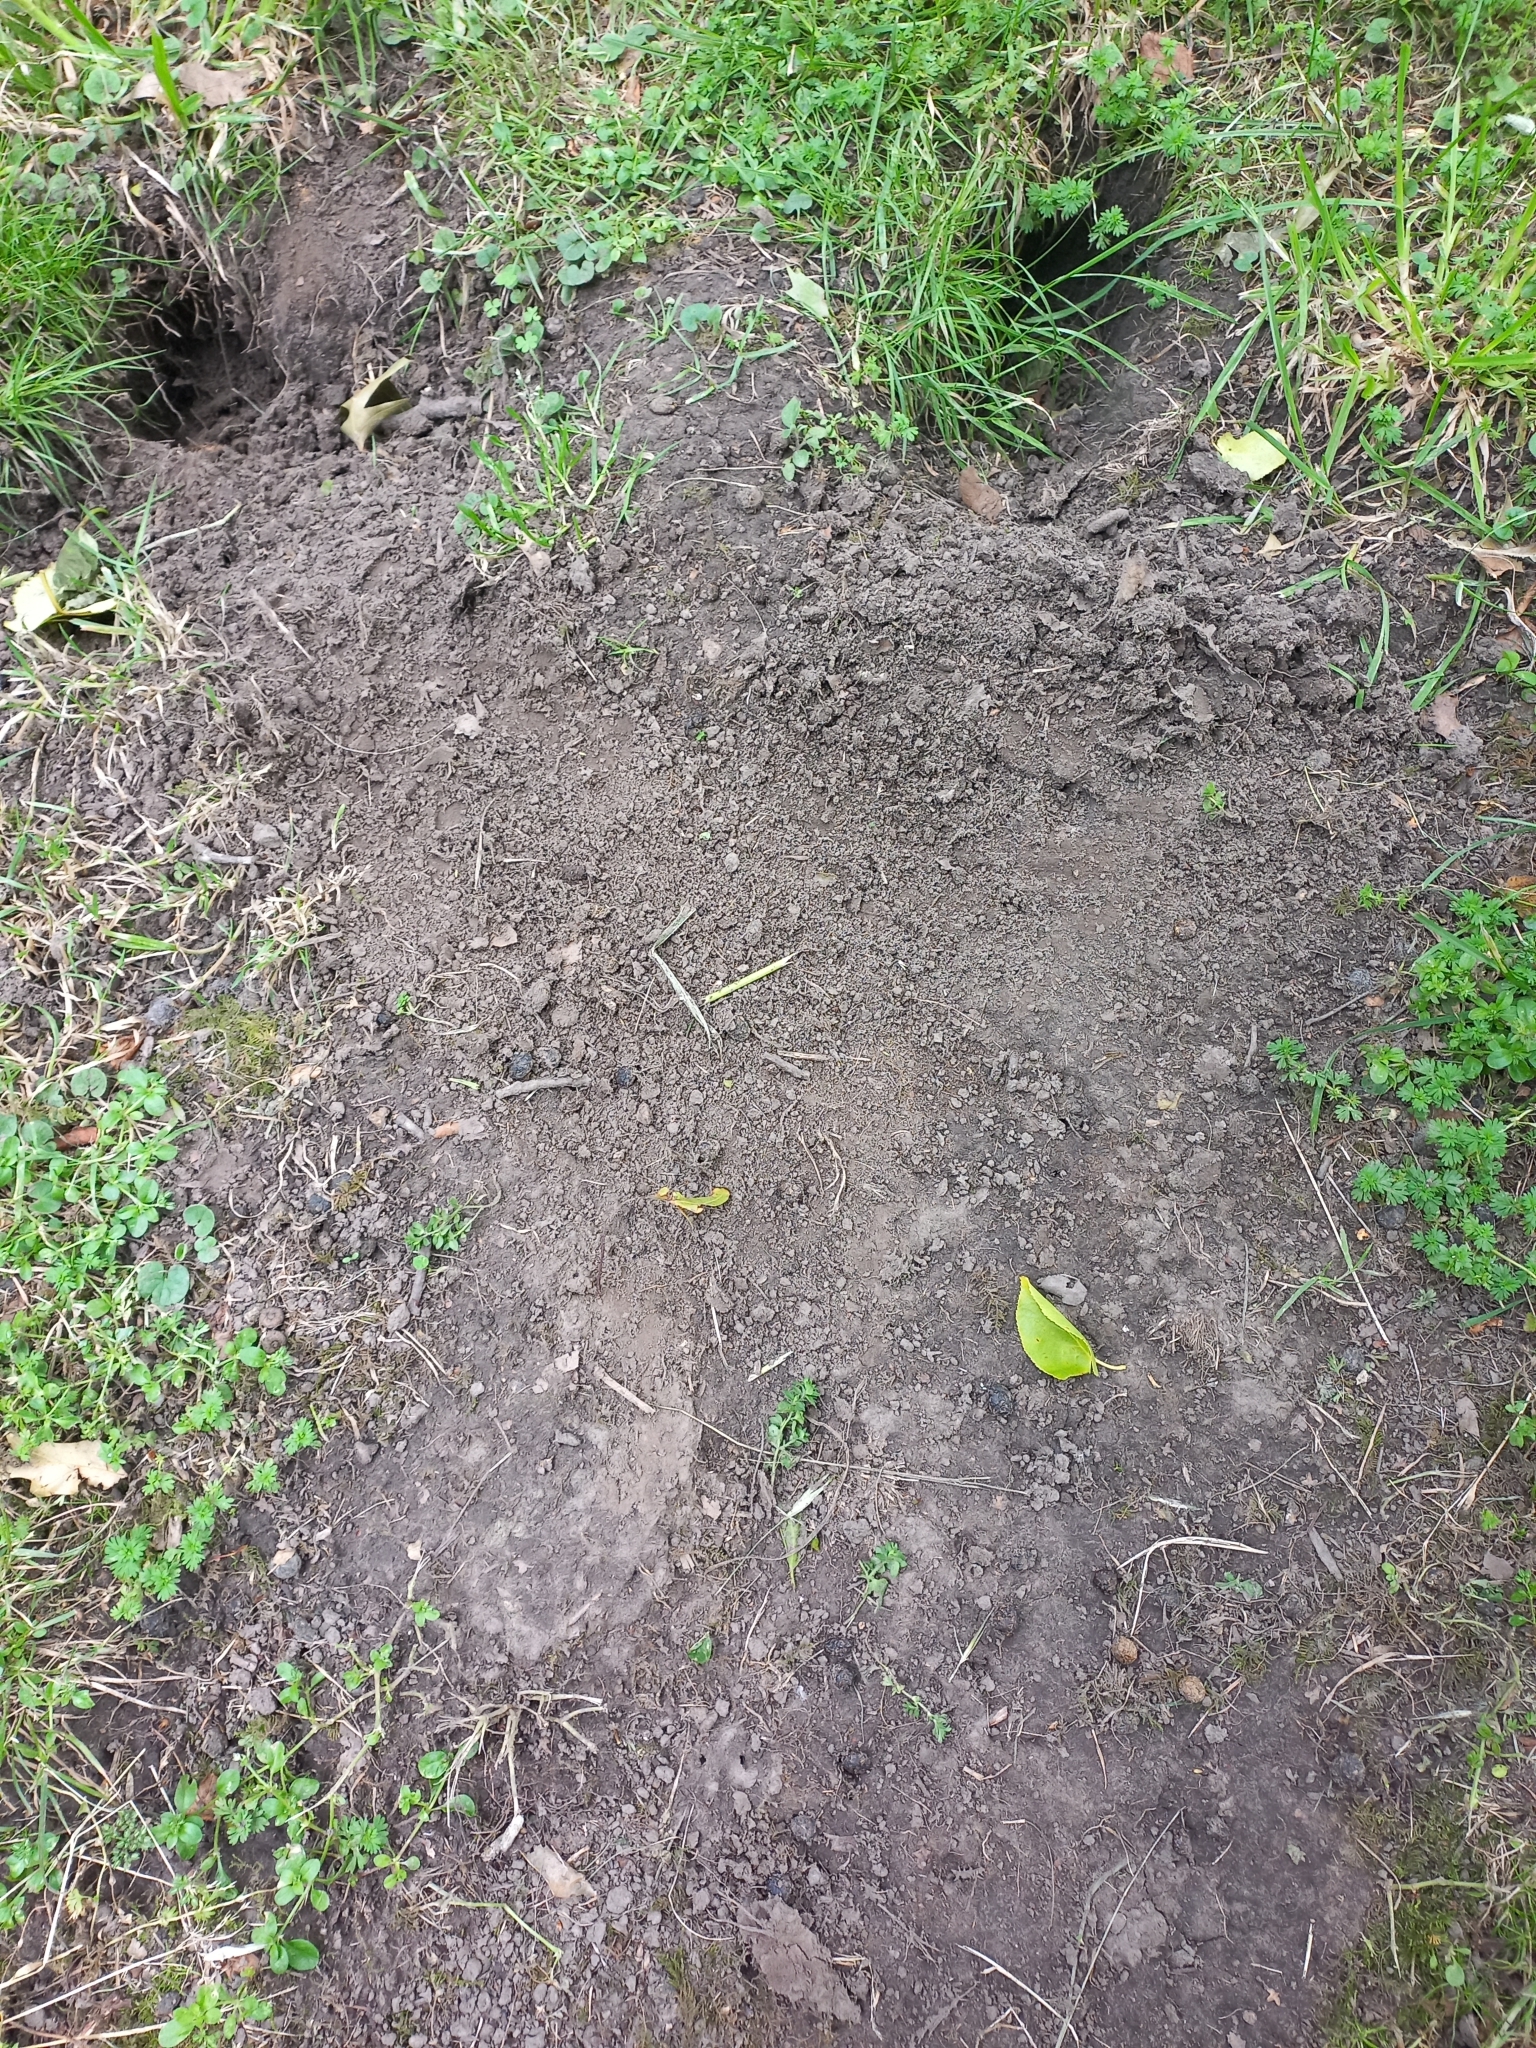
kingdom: Animalia
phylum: Chordata
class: Mammalia
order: Lagomorpha
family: Leporidae
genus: Oryctolagus
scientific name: Oryctolagus cuniculus
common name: European rabbit
